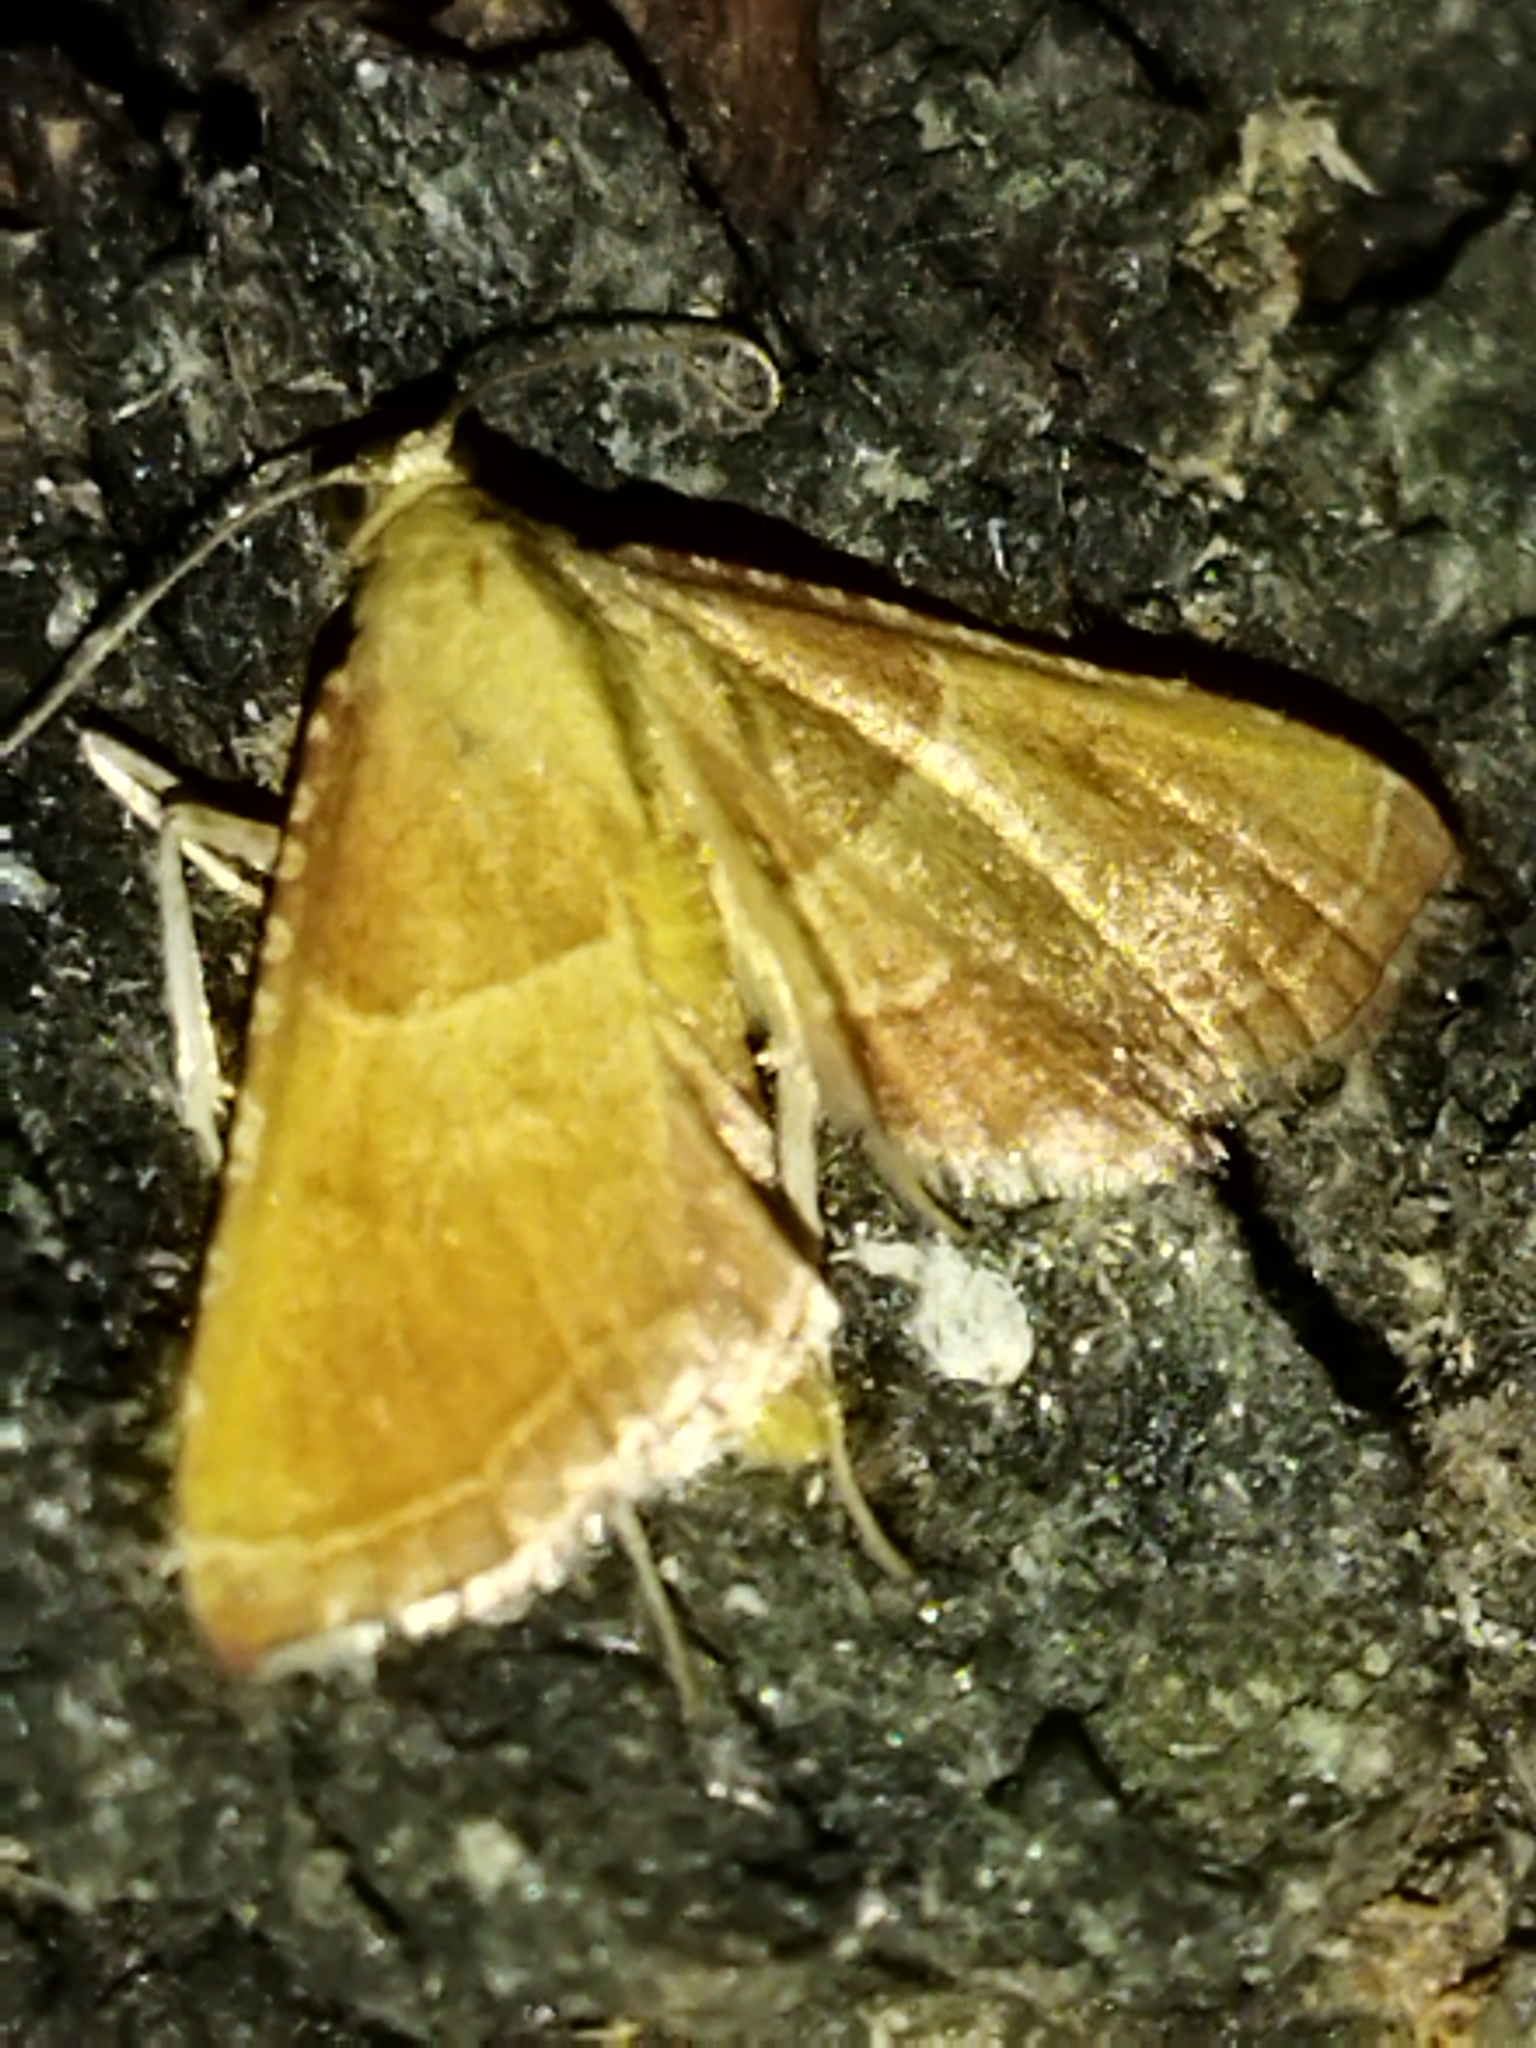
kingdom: Animalia
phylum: Arthropoda
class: Insecta
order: Lepidoptera
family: Pyralidae
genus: Endotricha
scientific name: Endotricha flammealis
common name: Rosy tabby
